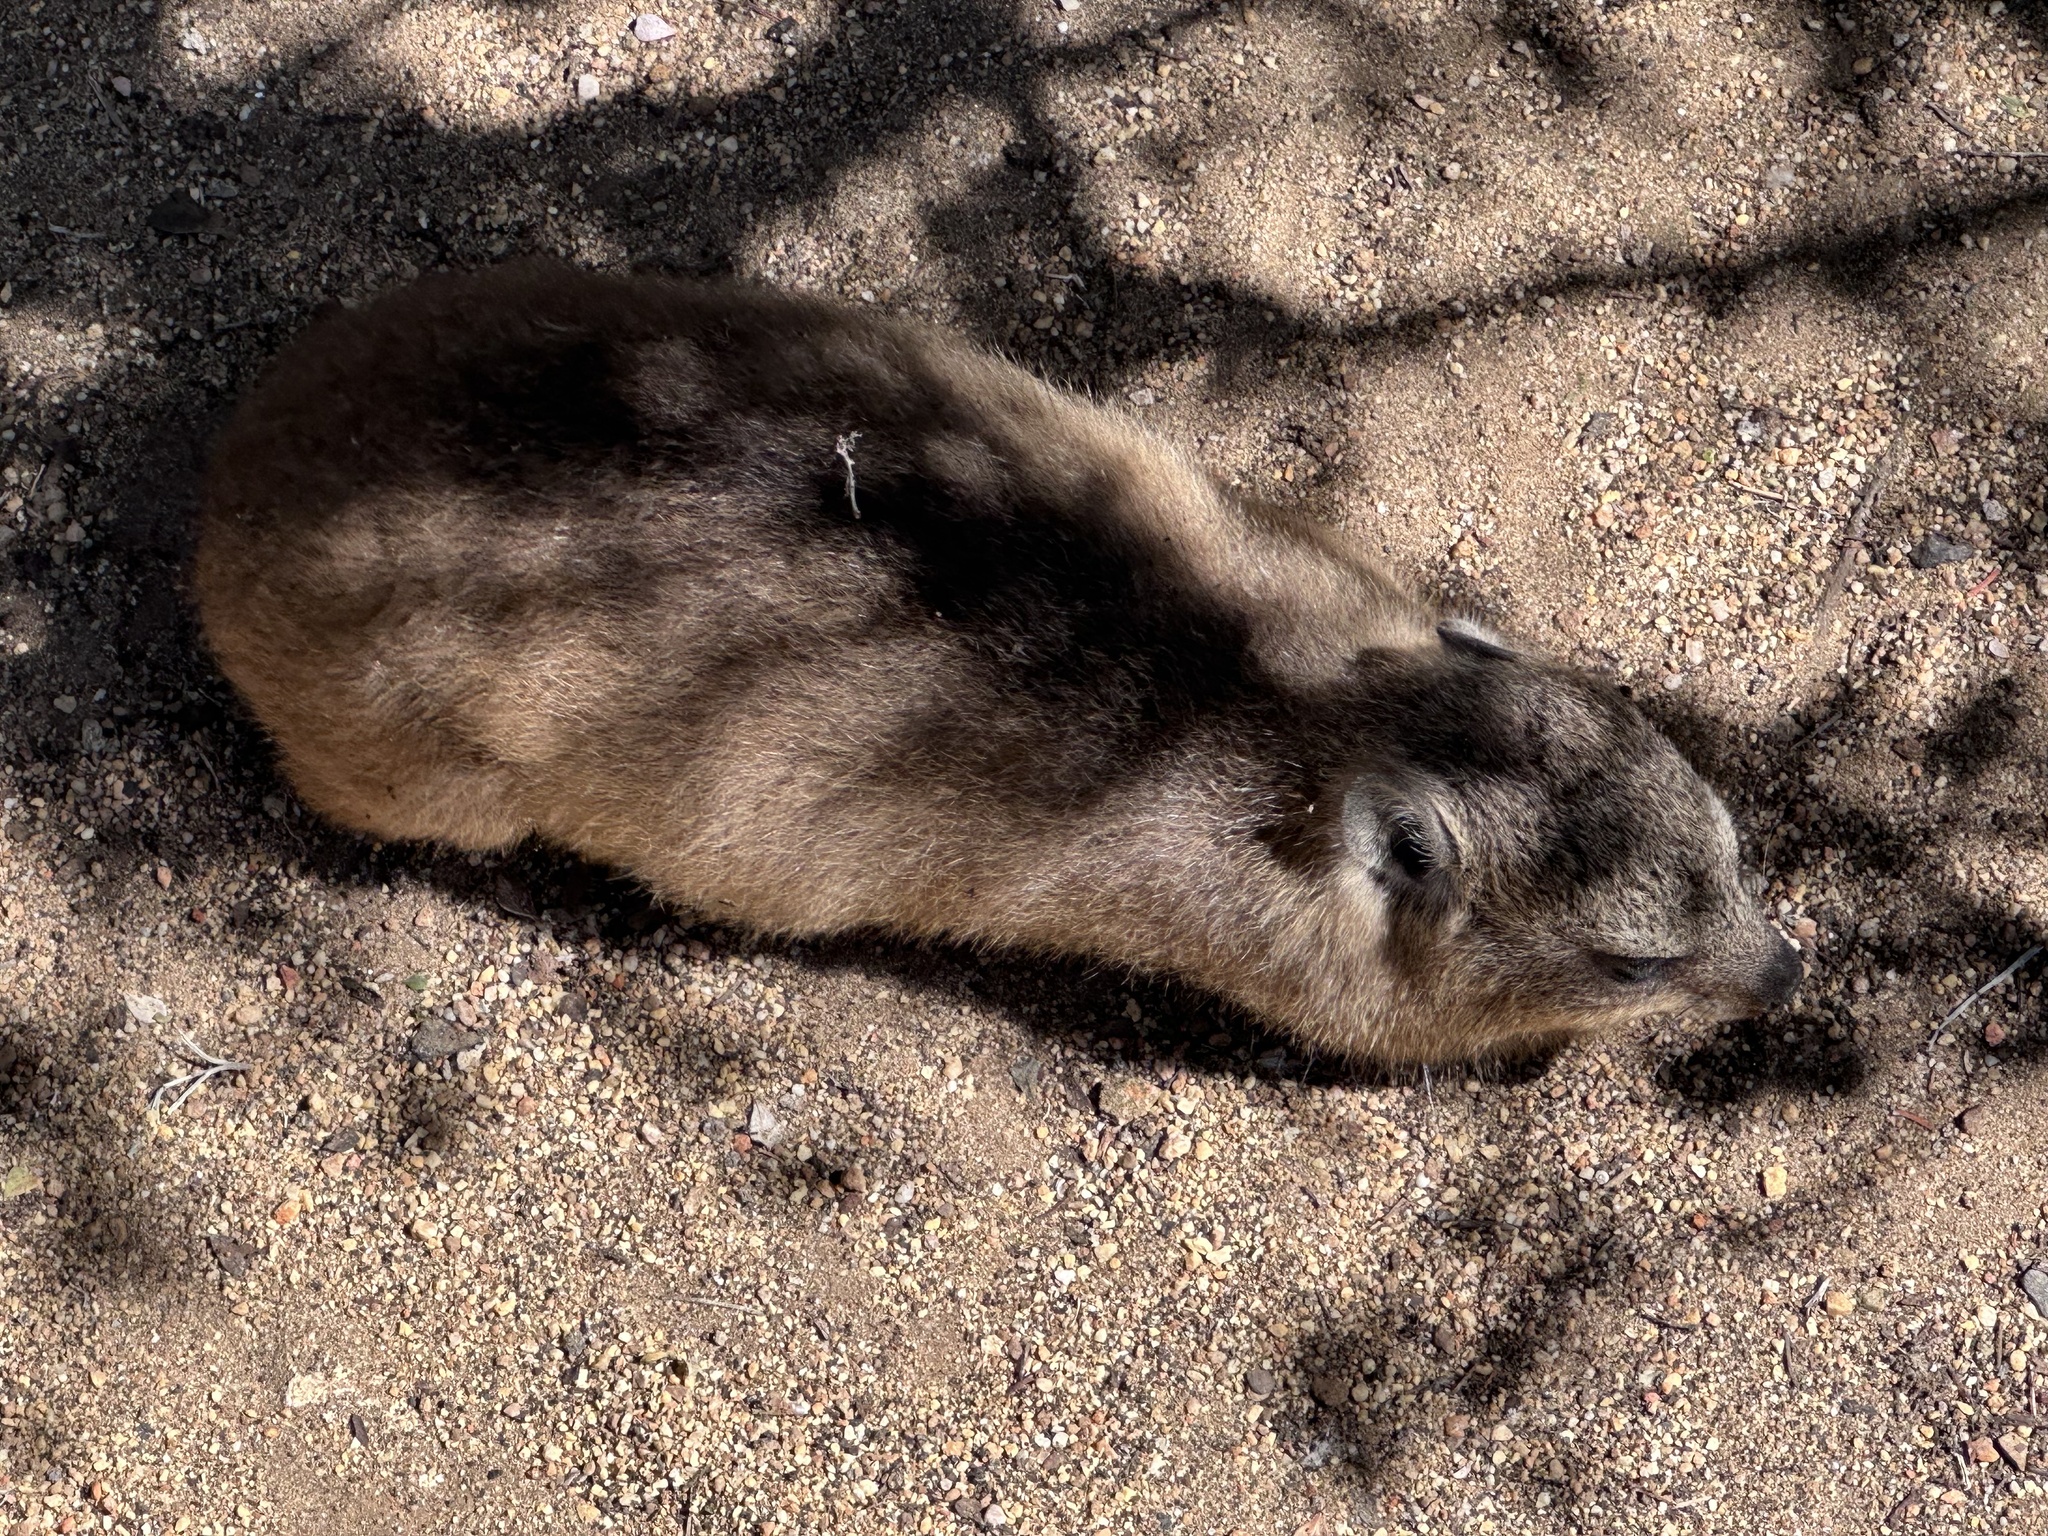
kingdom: Animalia
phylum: Chordata
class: Mammalia
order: Hyracoidea
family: Procaviidae
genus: Procavia
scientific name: Procavia capensis
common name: Rock hyrax
